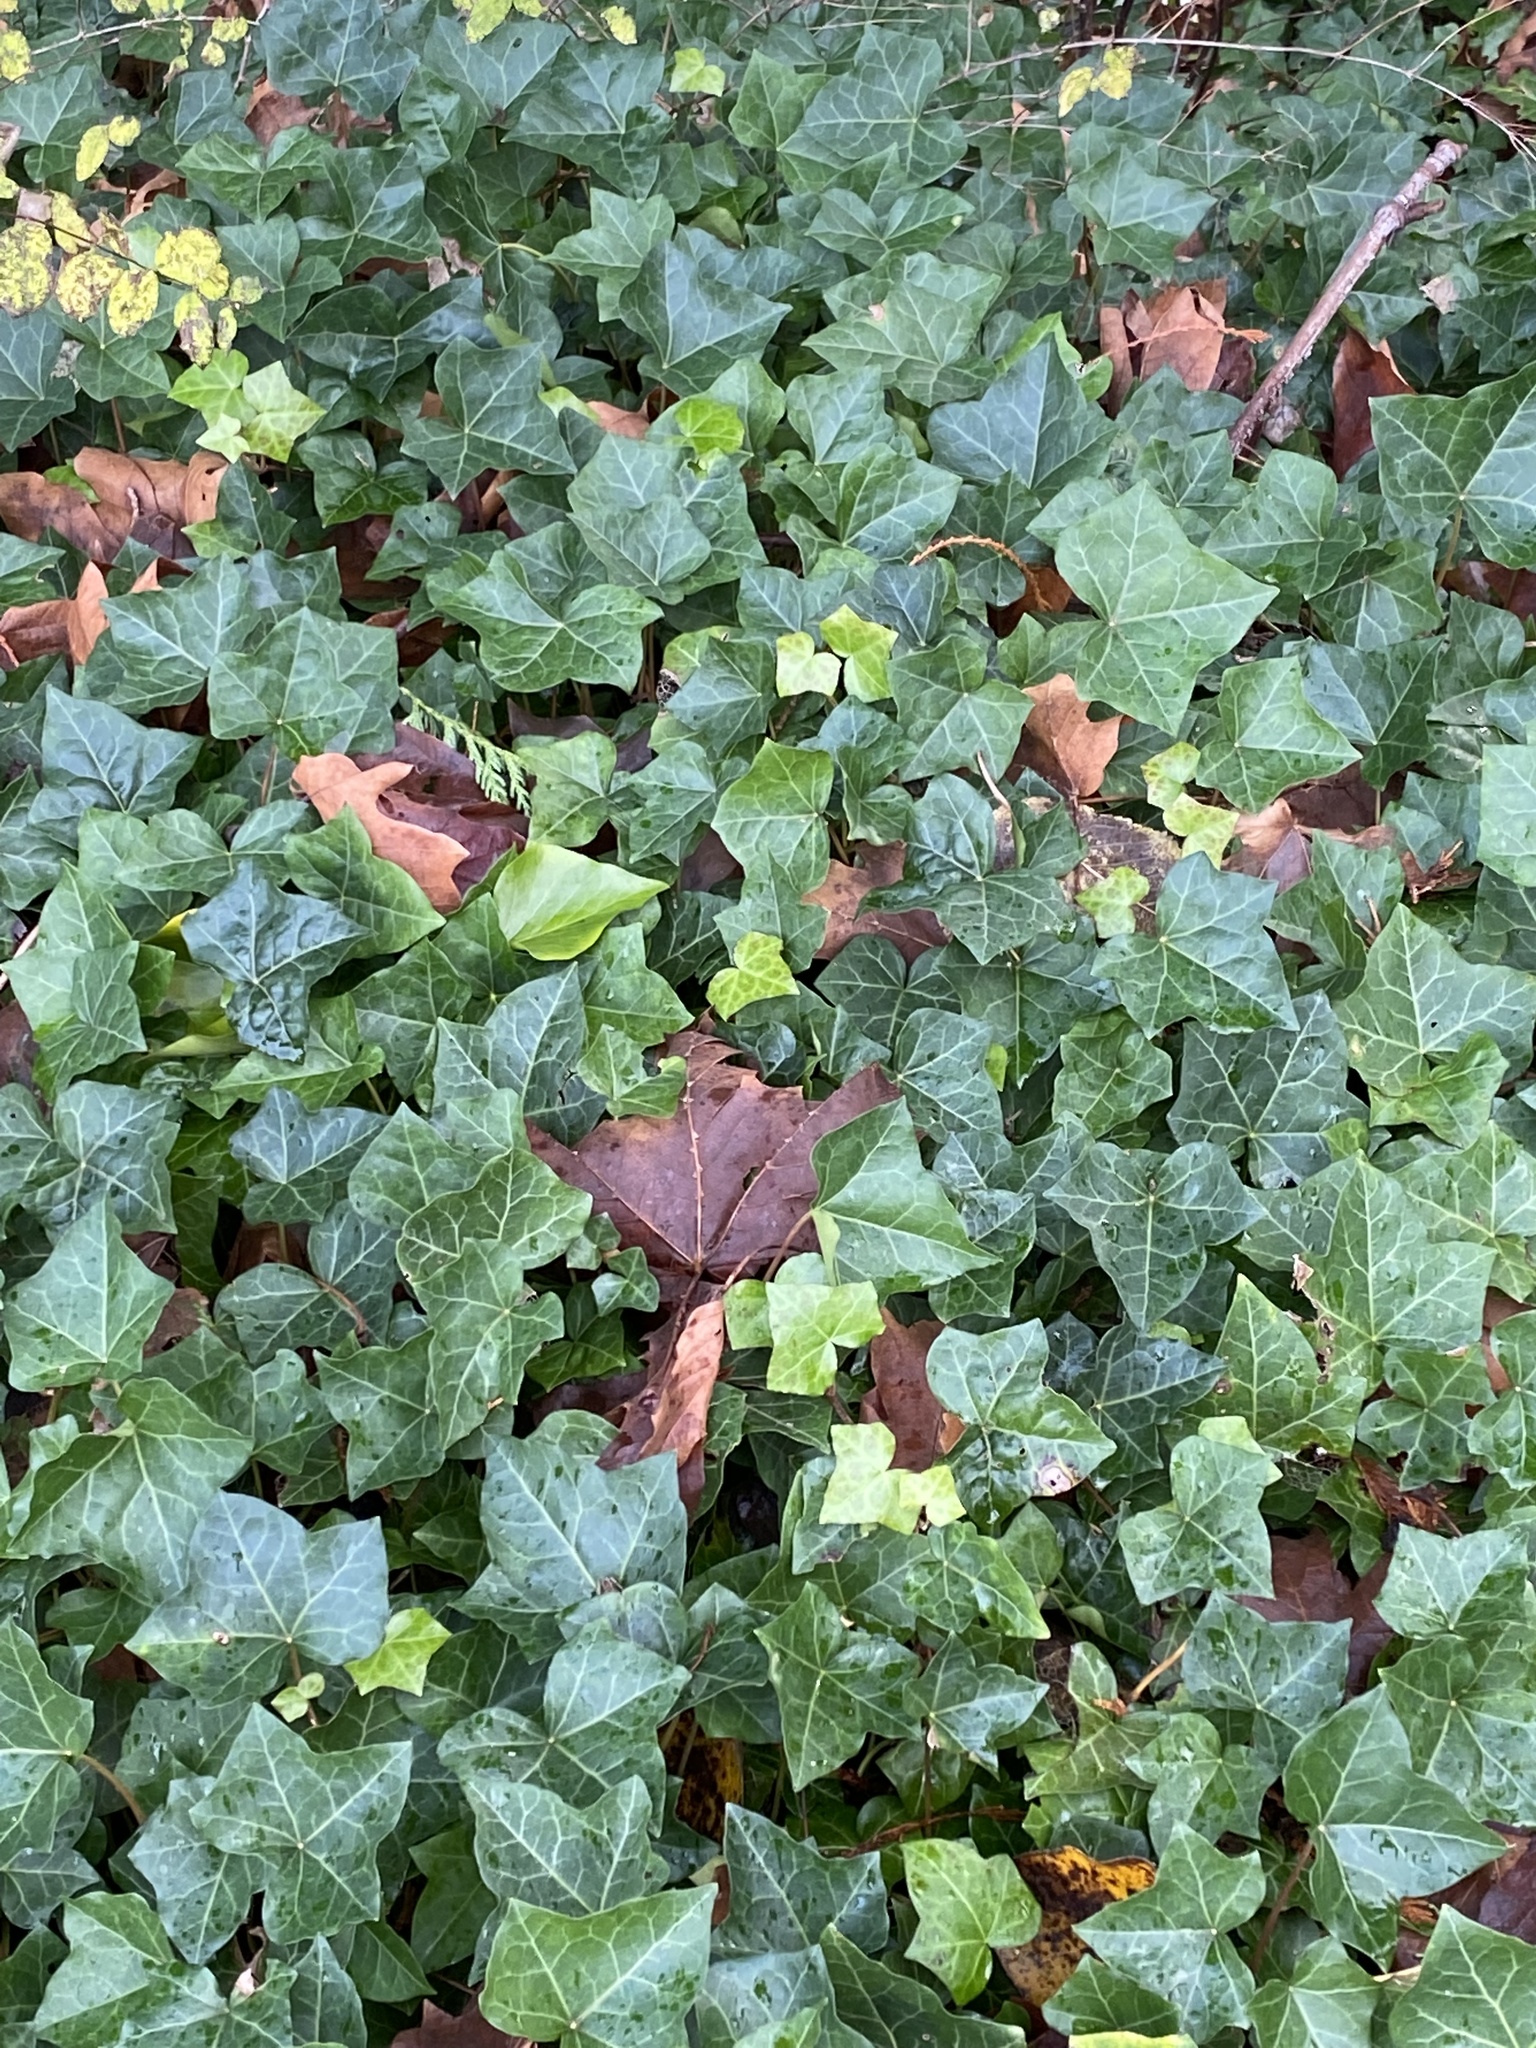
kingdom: Plantae
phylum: Tracheophyta
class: Magnoliopsida
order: Apiales
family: Araliaceae
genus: Hedera
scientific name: Hedera helix
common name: Ivy
